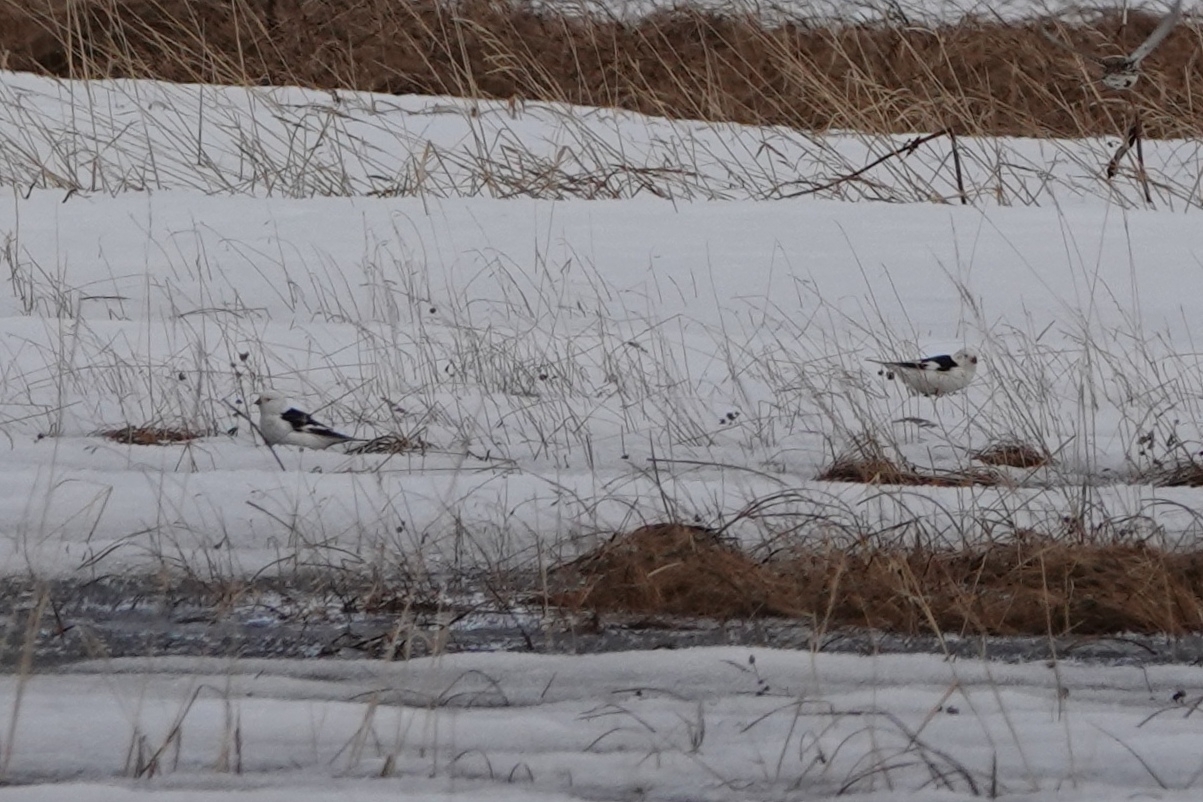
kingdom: Animalia
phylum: Chordata
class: Aves
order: Passeriformes
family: Calcariidae
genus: Plectrophenax
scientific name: Plectrophenax nivalis
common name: Snow bunting
